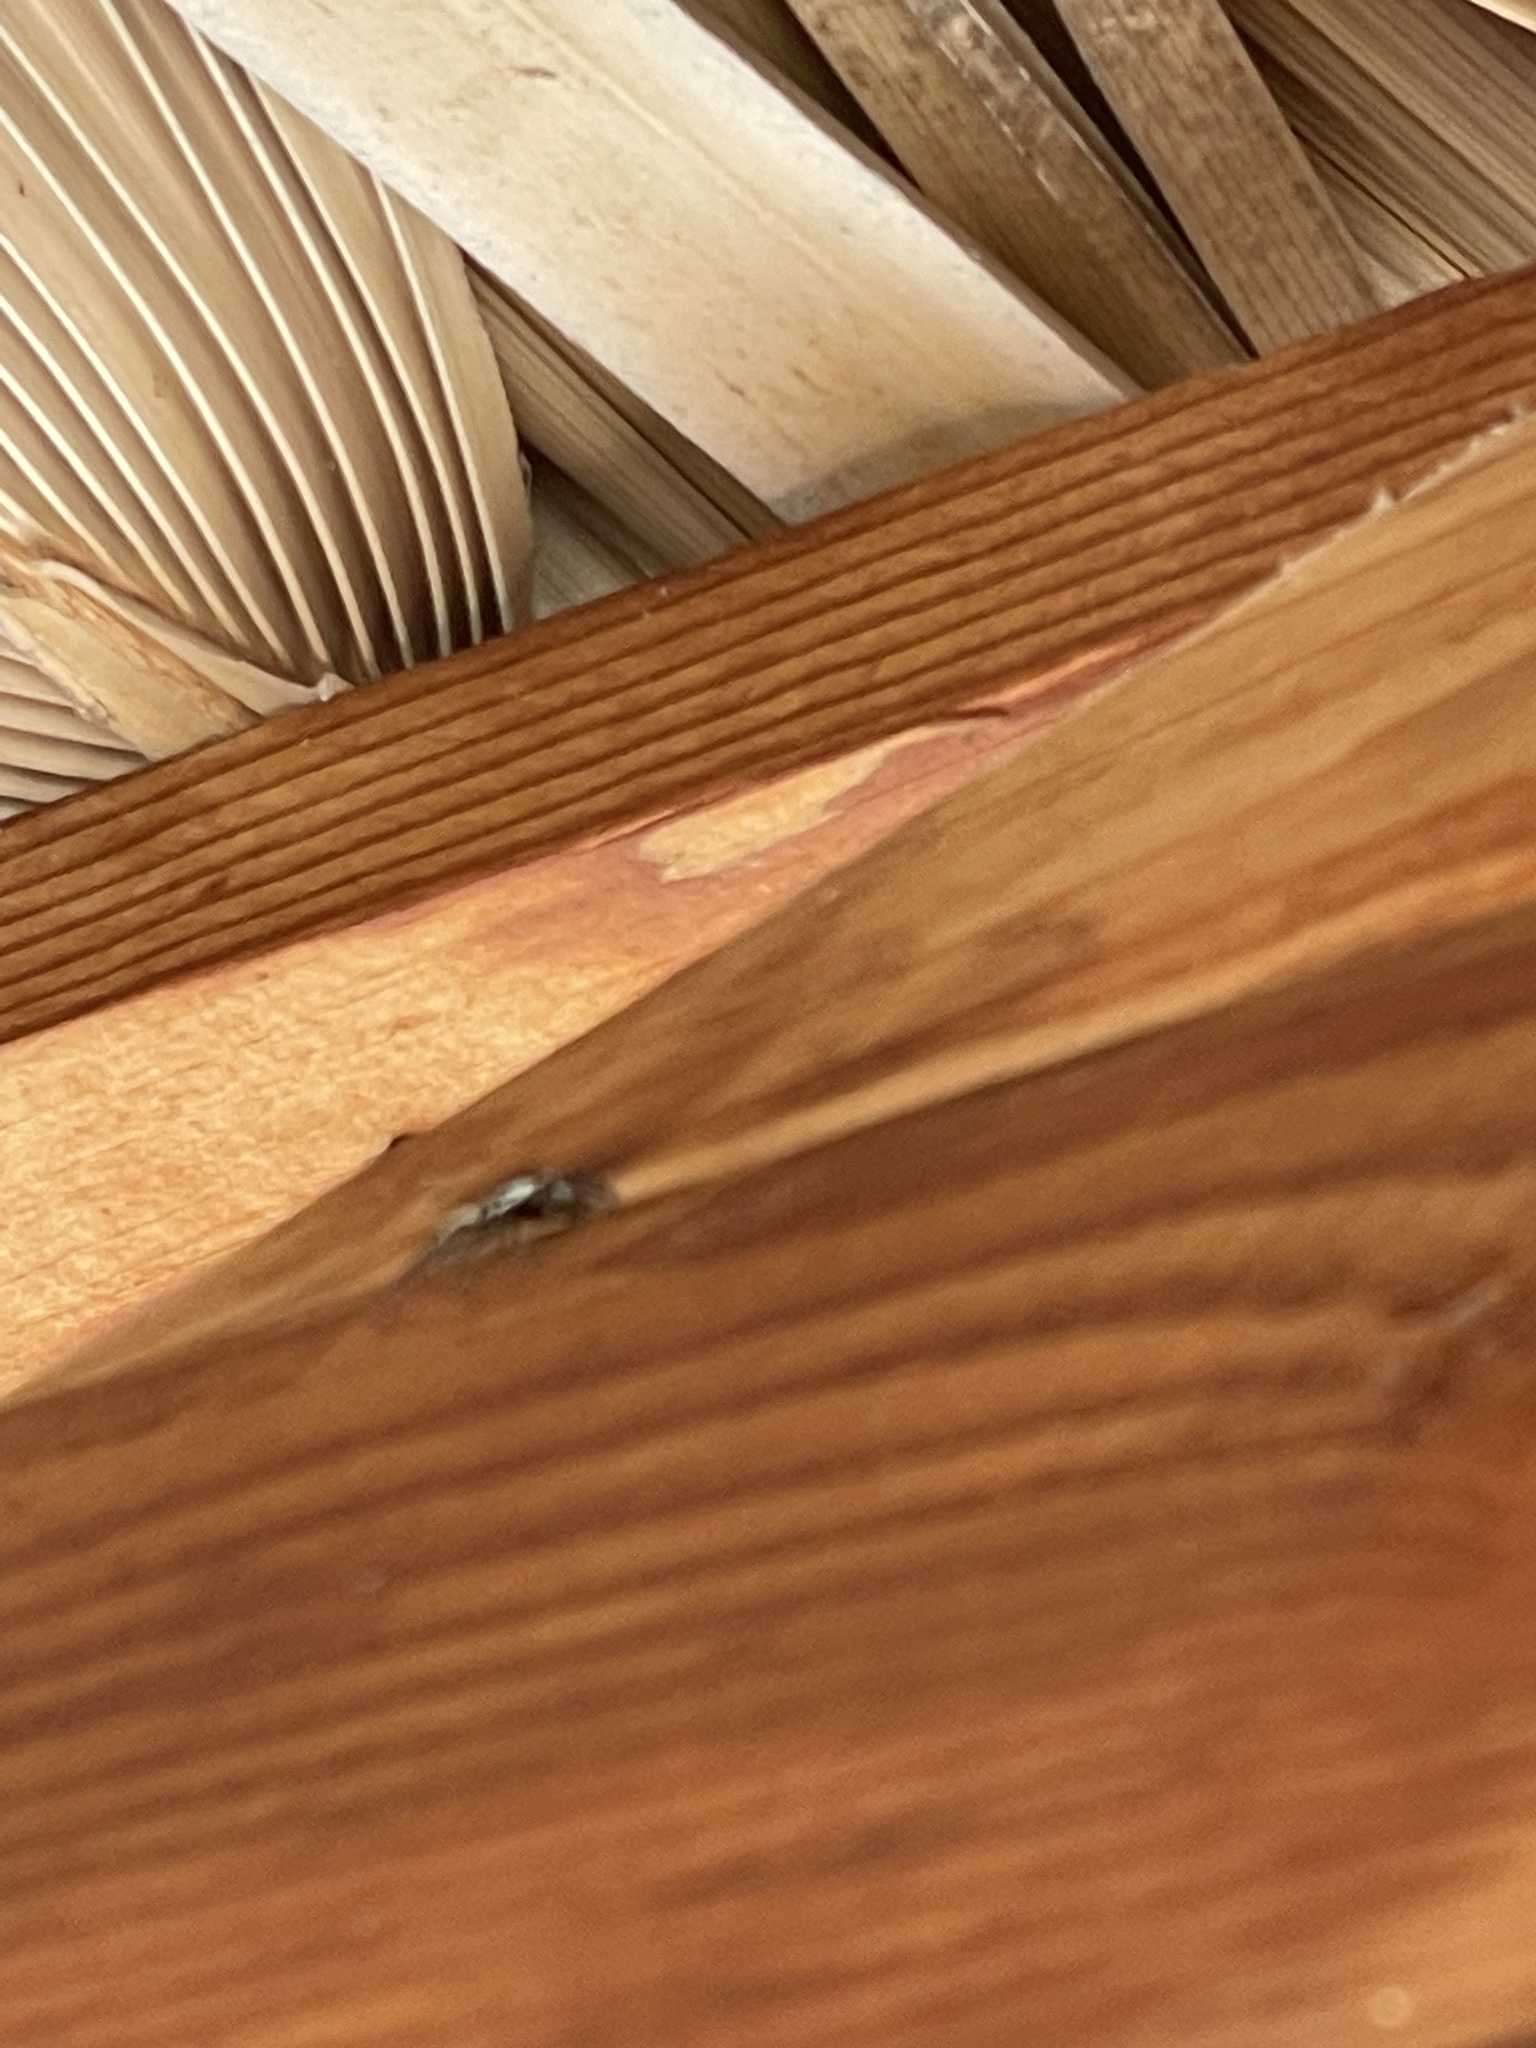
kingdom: Animalia
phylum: Arthropoda
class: Arachnida
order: Araneae
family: Salticidae
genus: Menemerus
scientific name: Menemerus bivittatus
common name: Gray wall jumper
